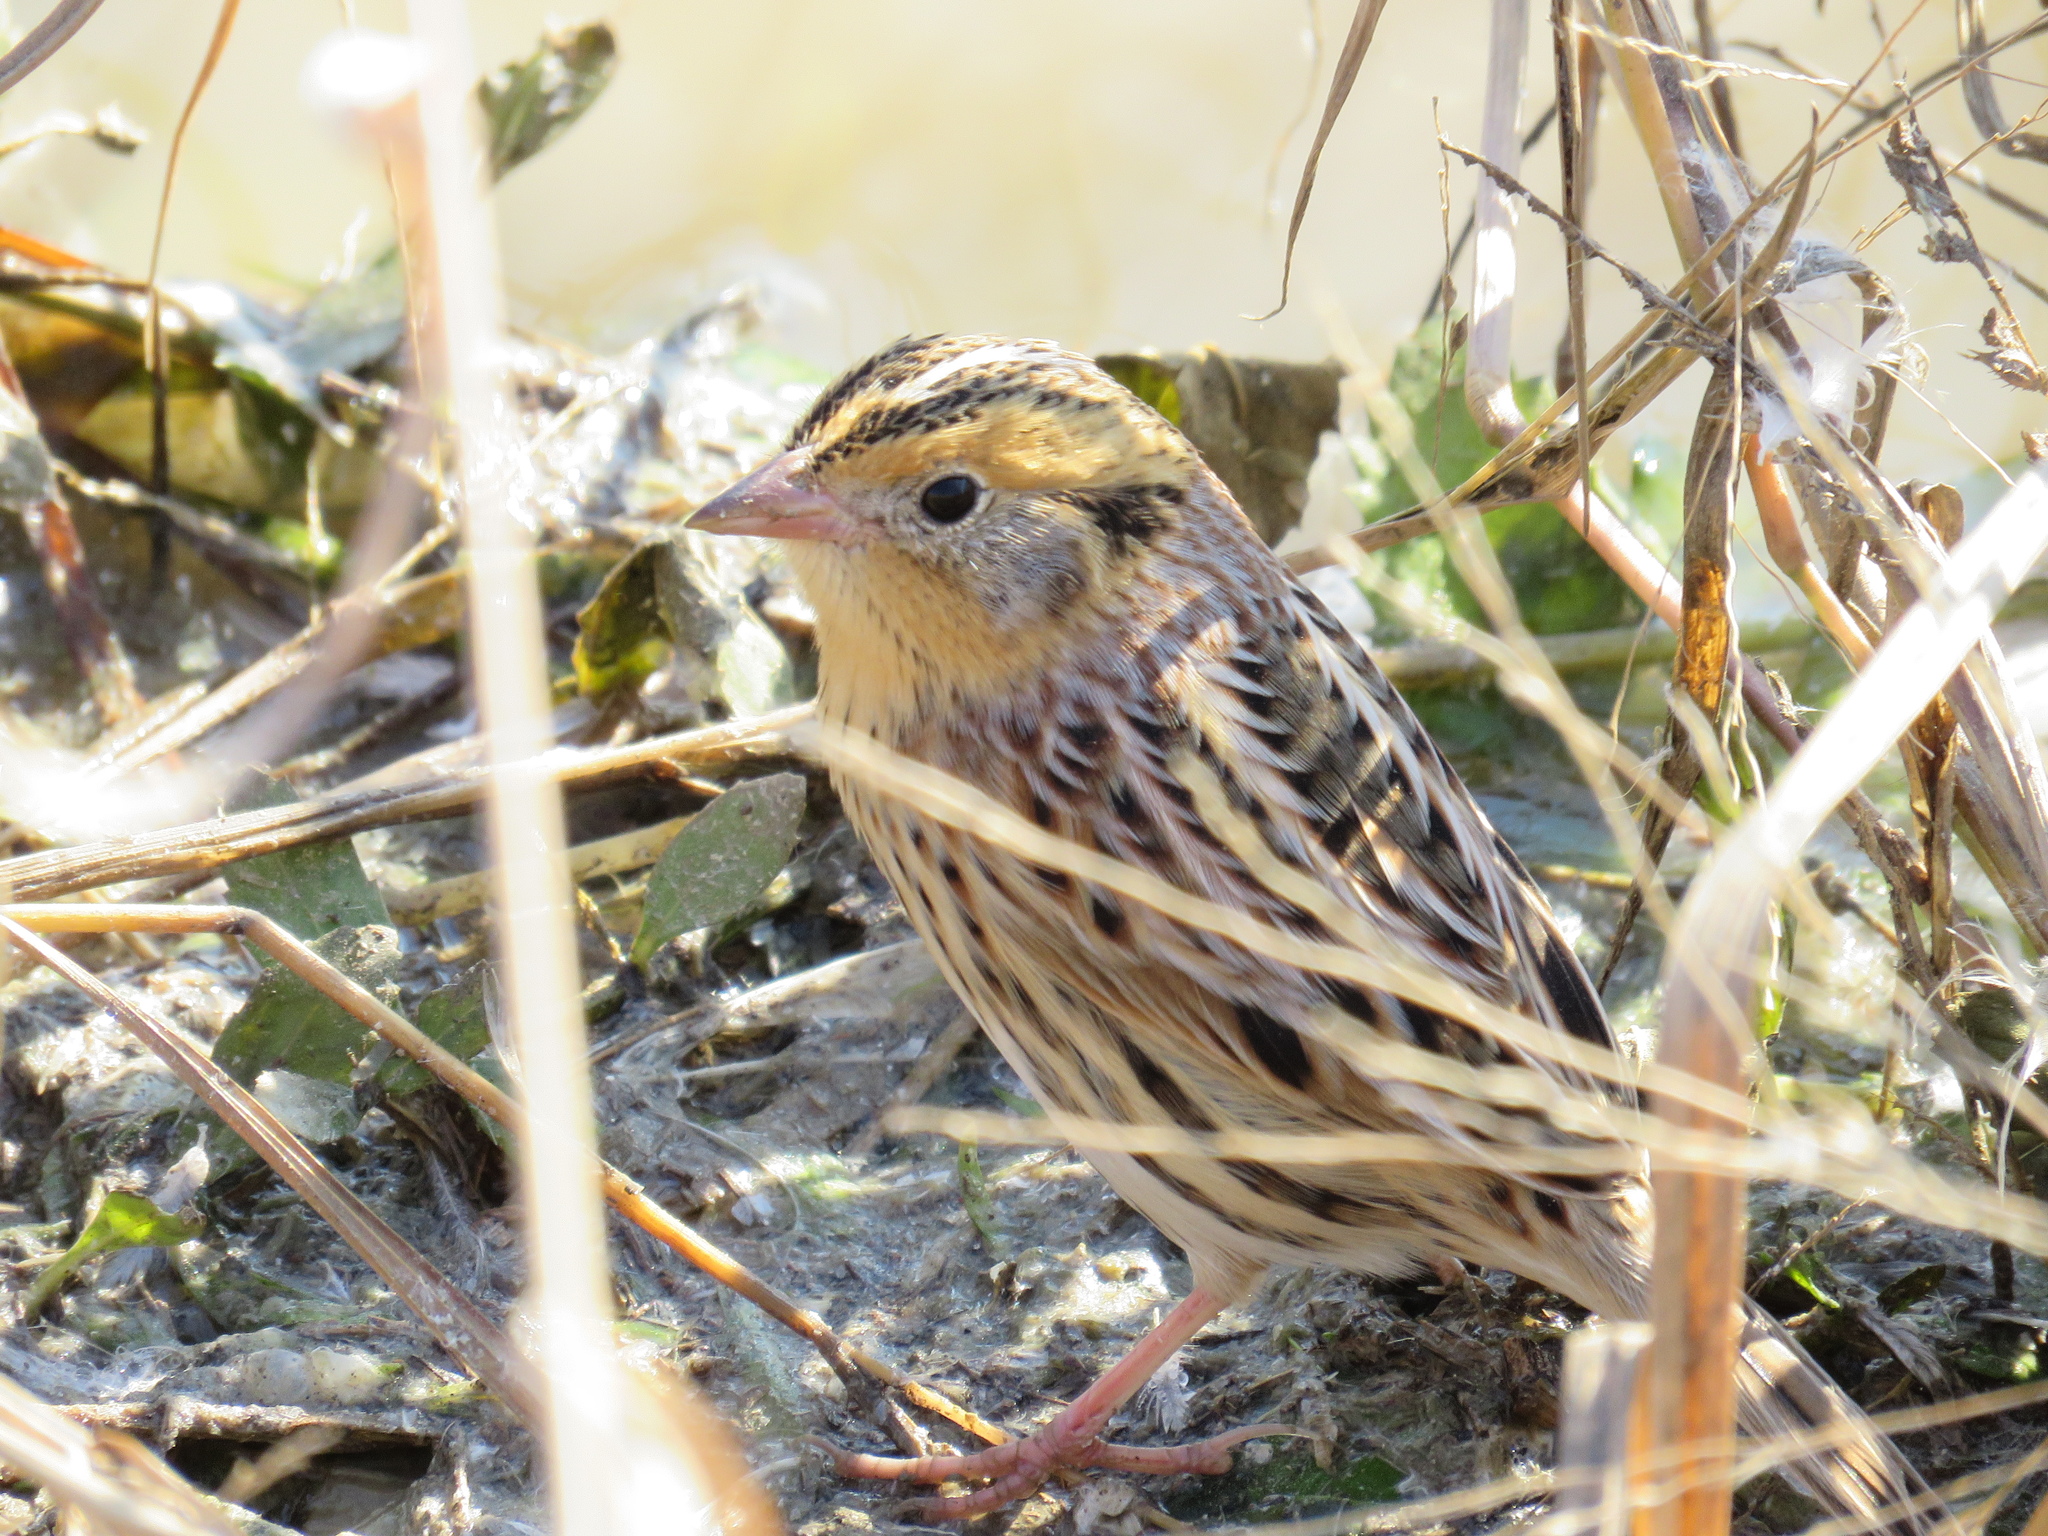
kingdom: Animalia
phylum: Chordata
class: Aves
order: Passeriformes
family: Passerellidae
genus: Ammospiza
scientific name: Ammospiza leconteii
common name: Le conte's sparrow
